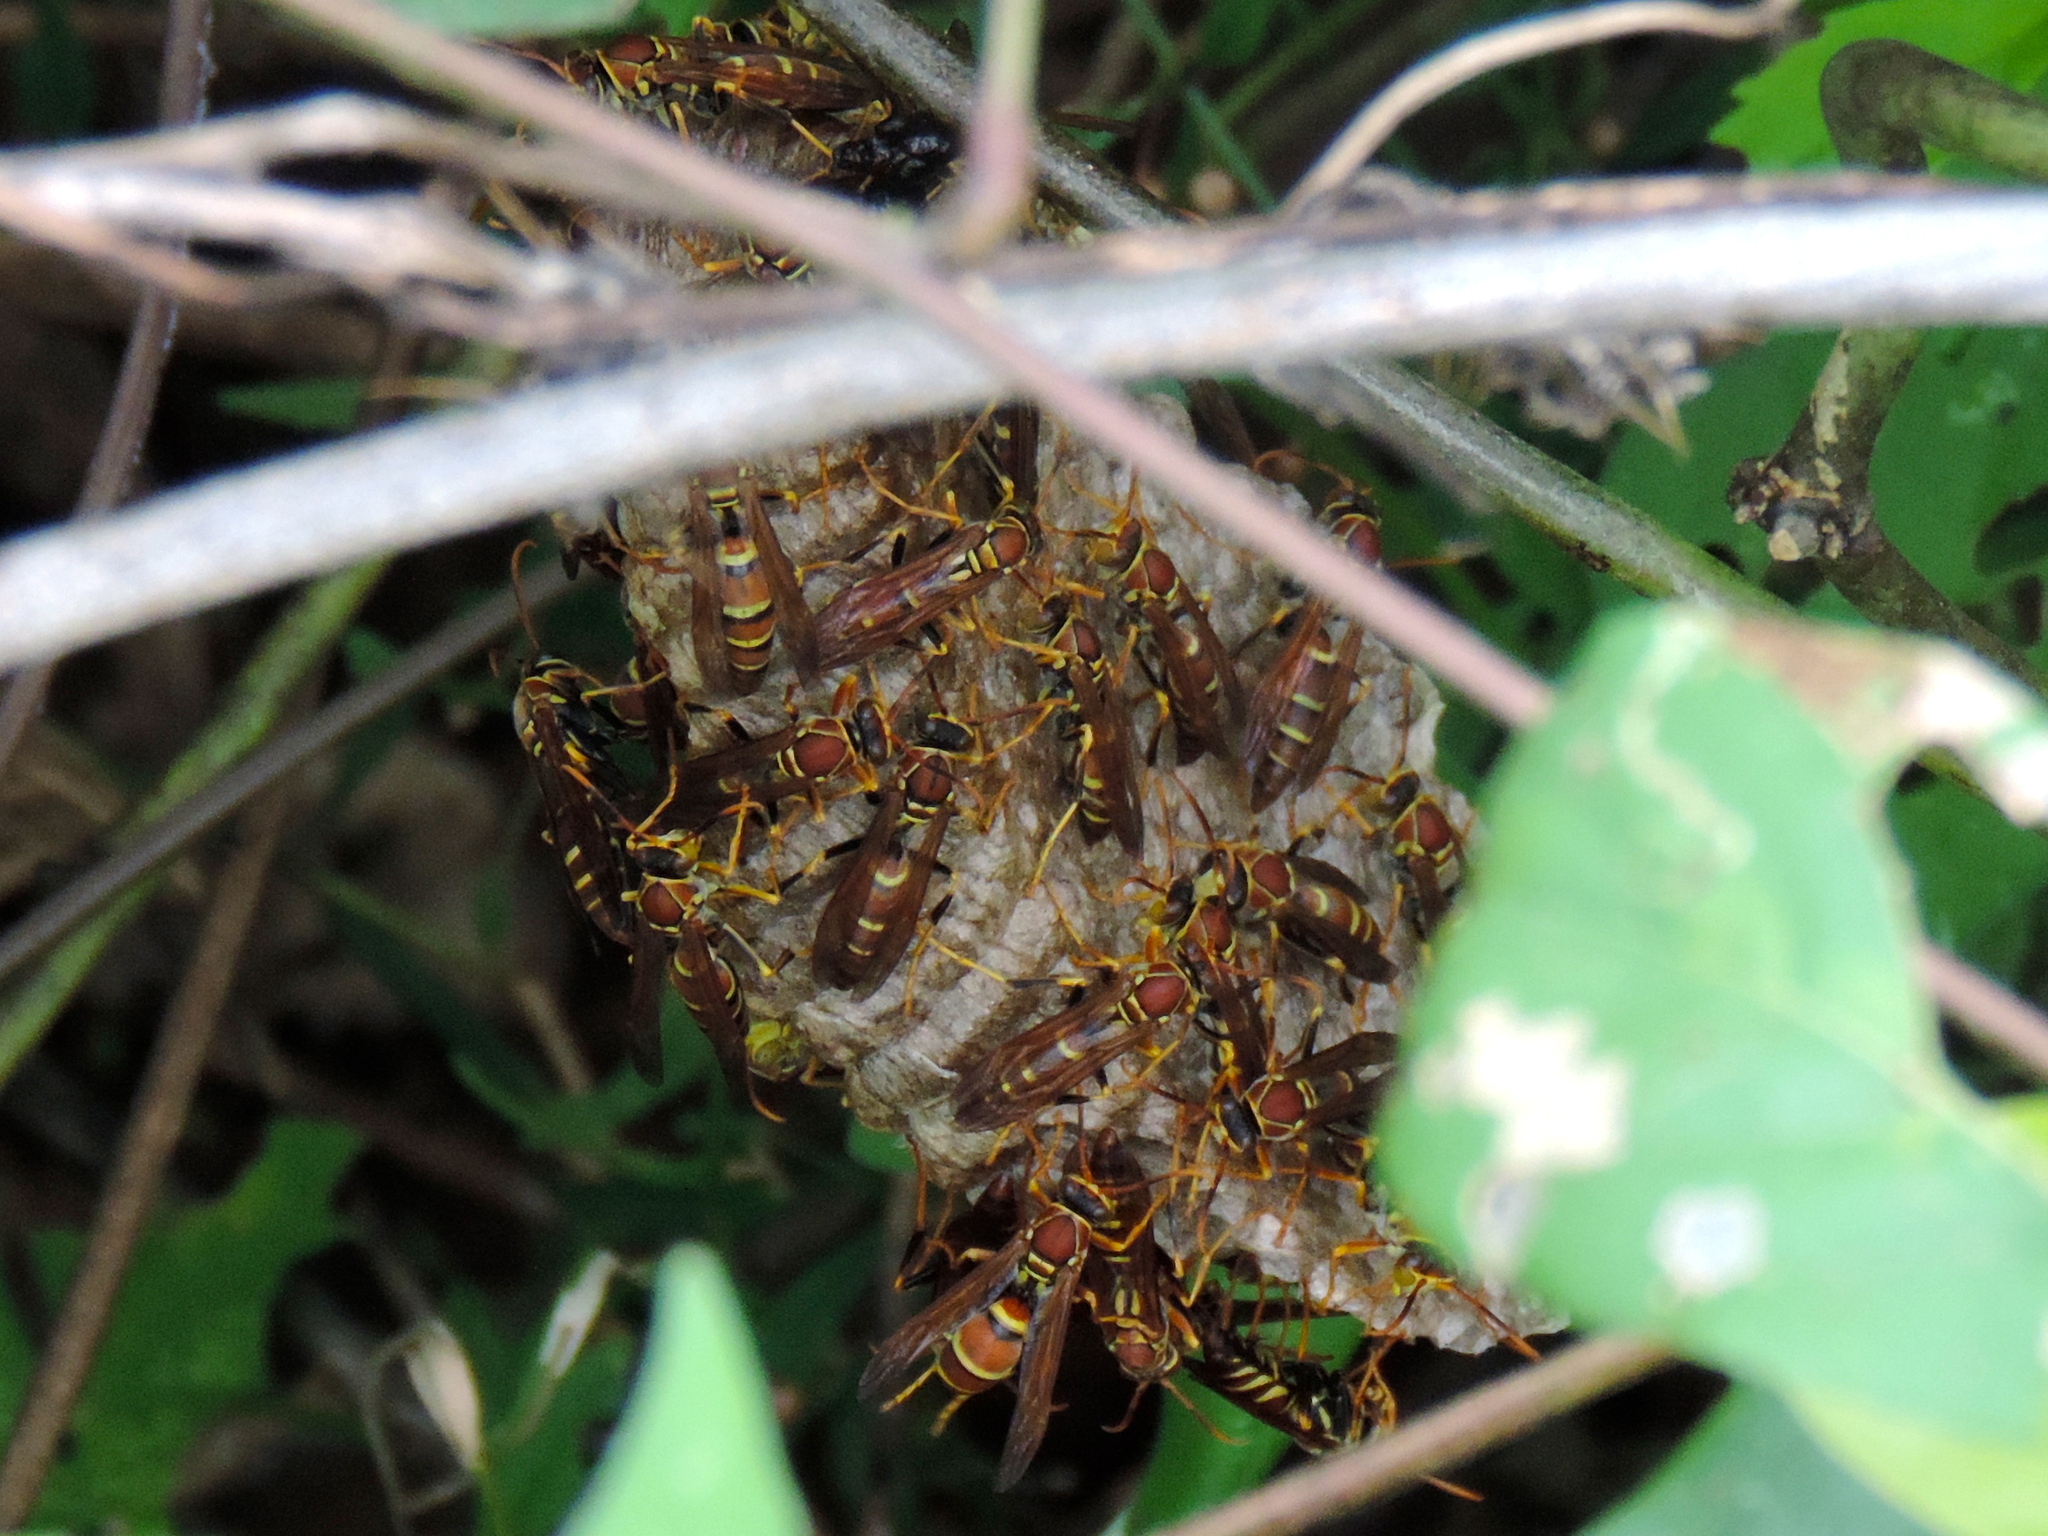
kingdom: Animalia
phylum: Arthropoda
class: Insecta
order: Hymenoptera
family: Eumenidae
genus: Polistes
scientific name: Polistes instabilis
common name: Unstable paper wasp
